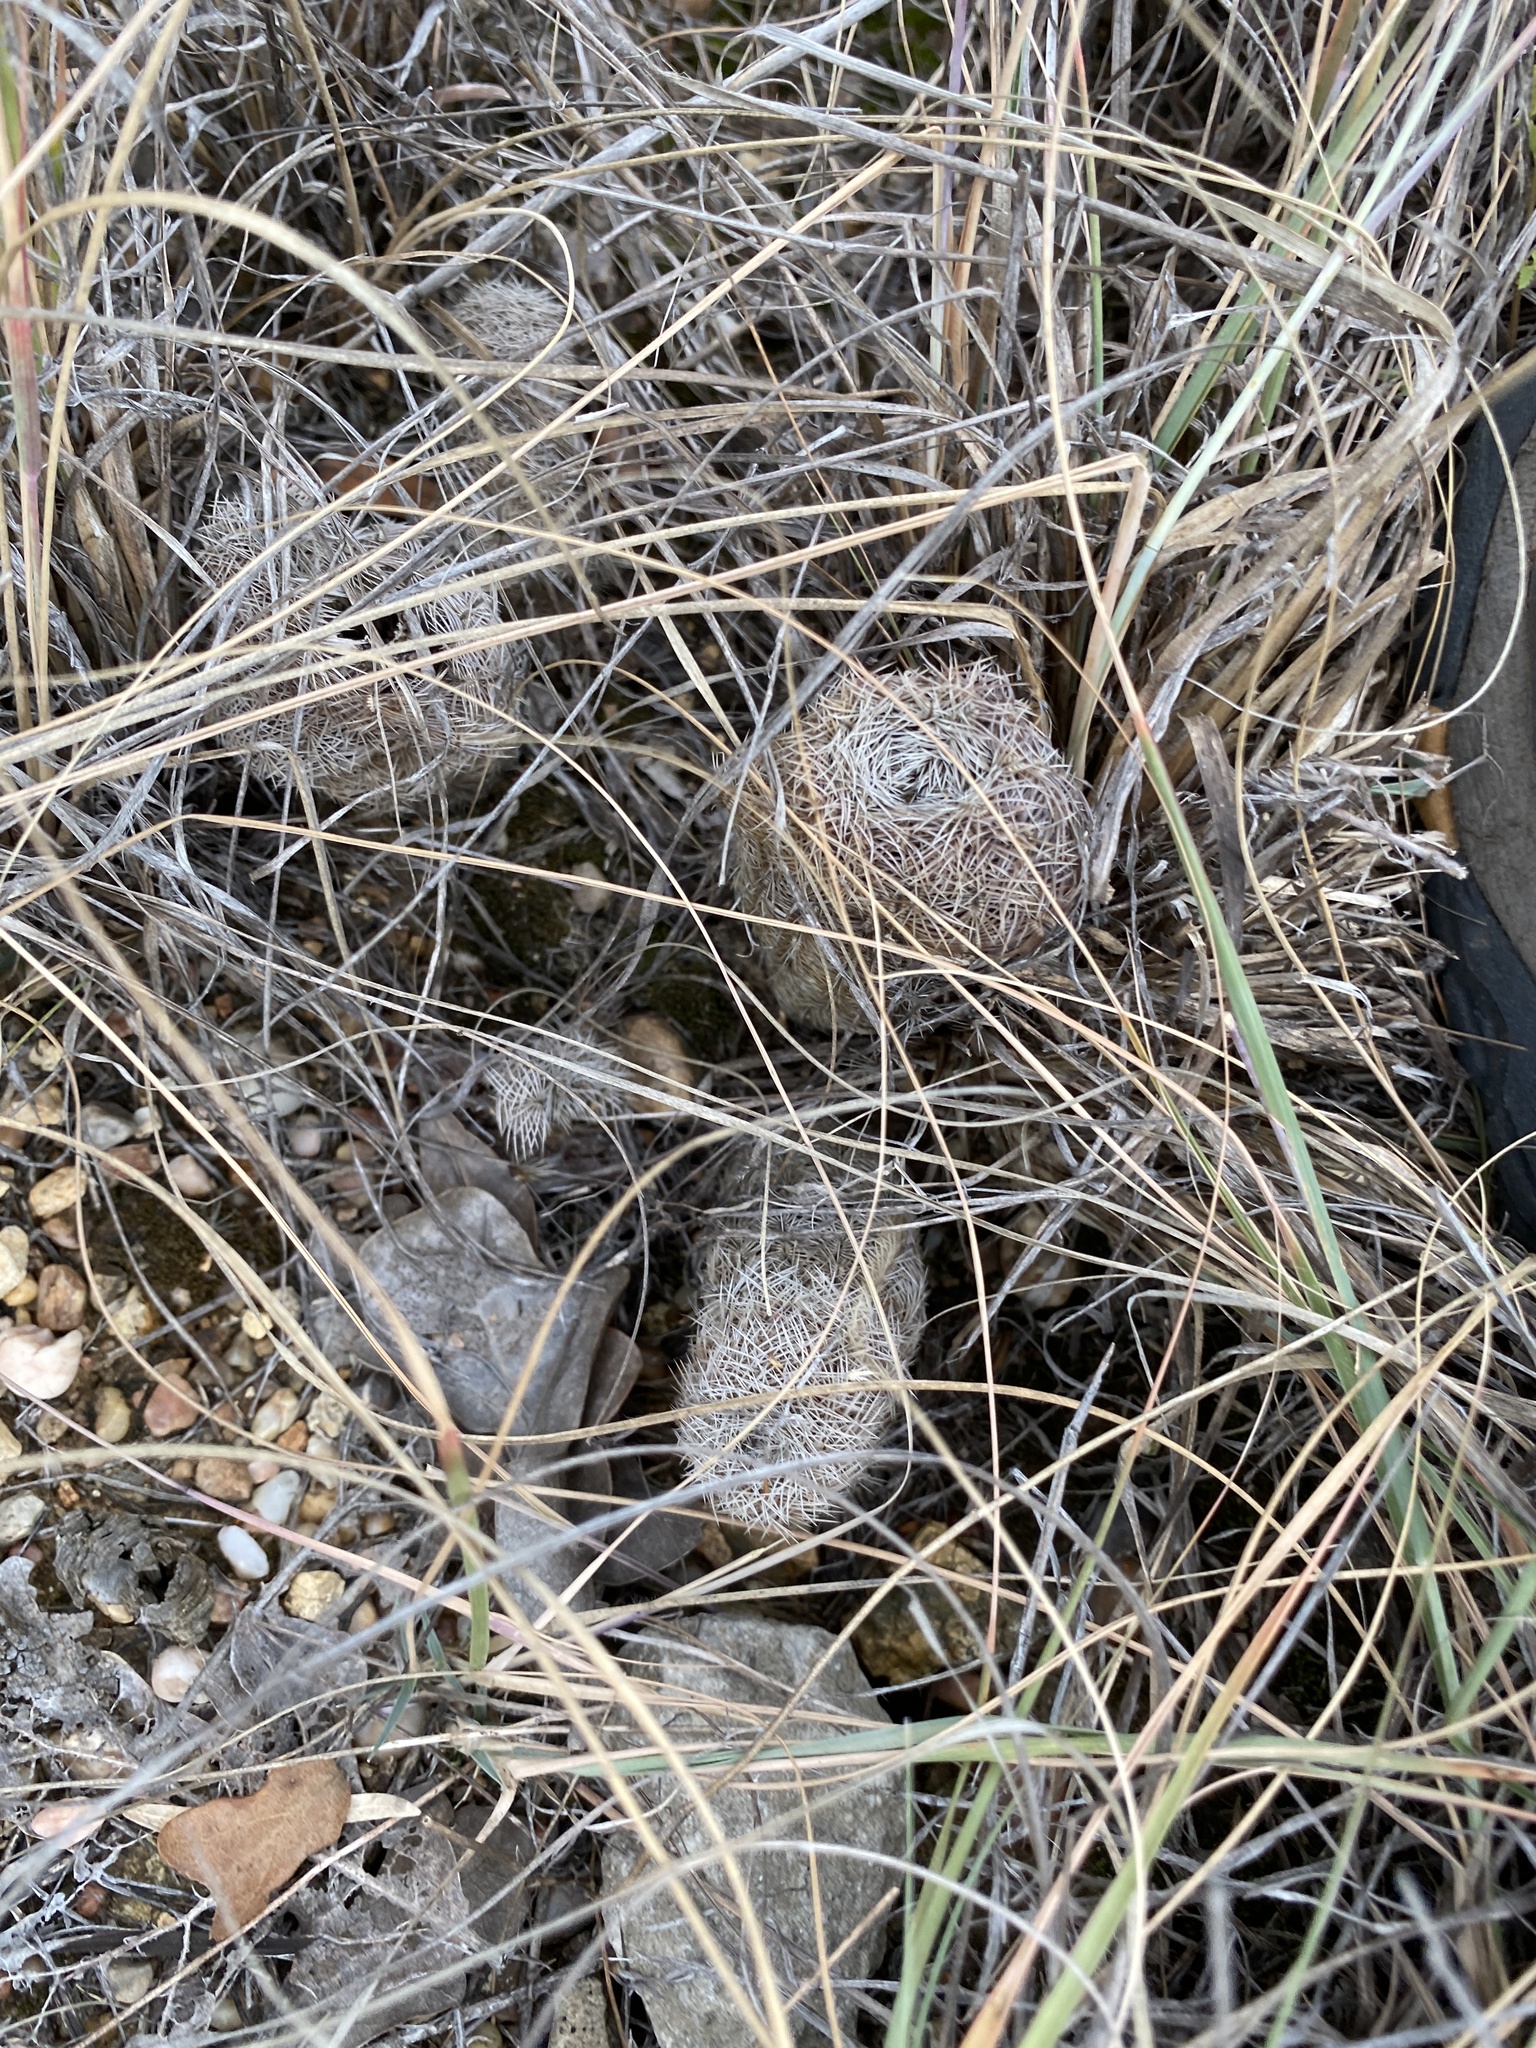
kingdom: Plantae
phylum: Tracheophyta
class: Magnoliopsida
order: Caryophyllales
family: Cactaceae
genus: Echinocereus
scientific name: Echinocereus reichenbachii
